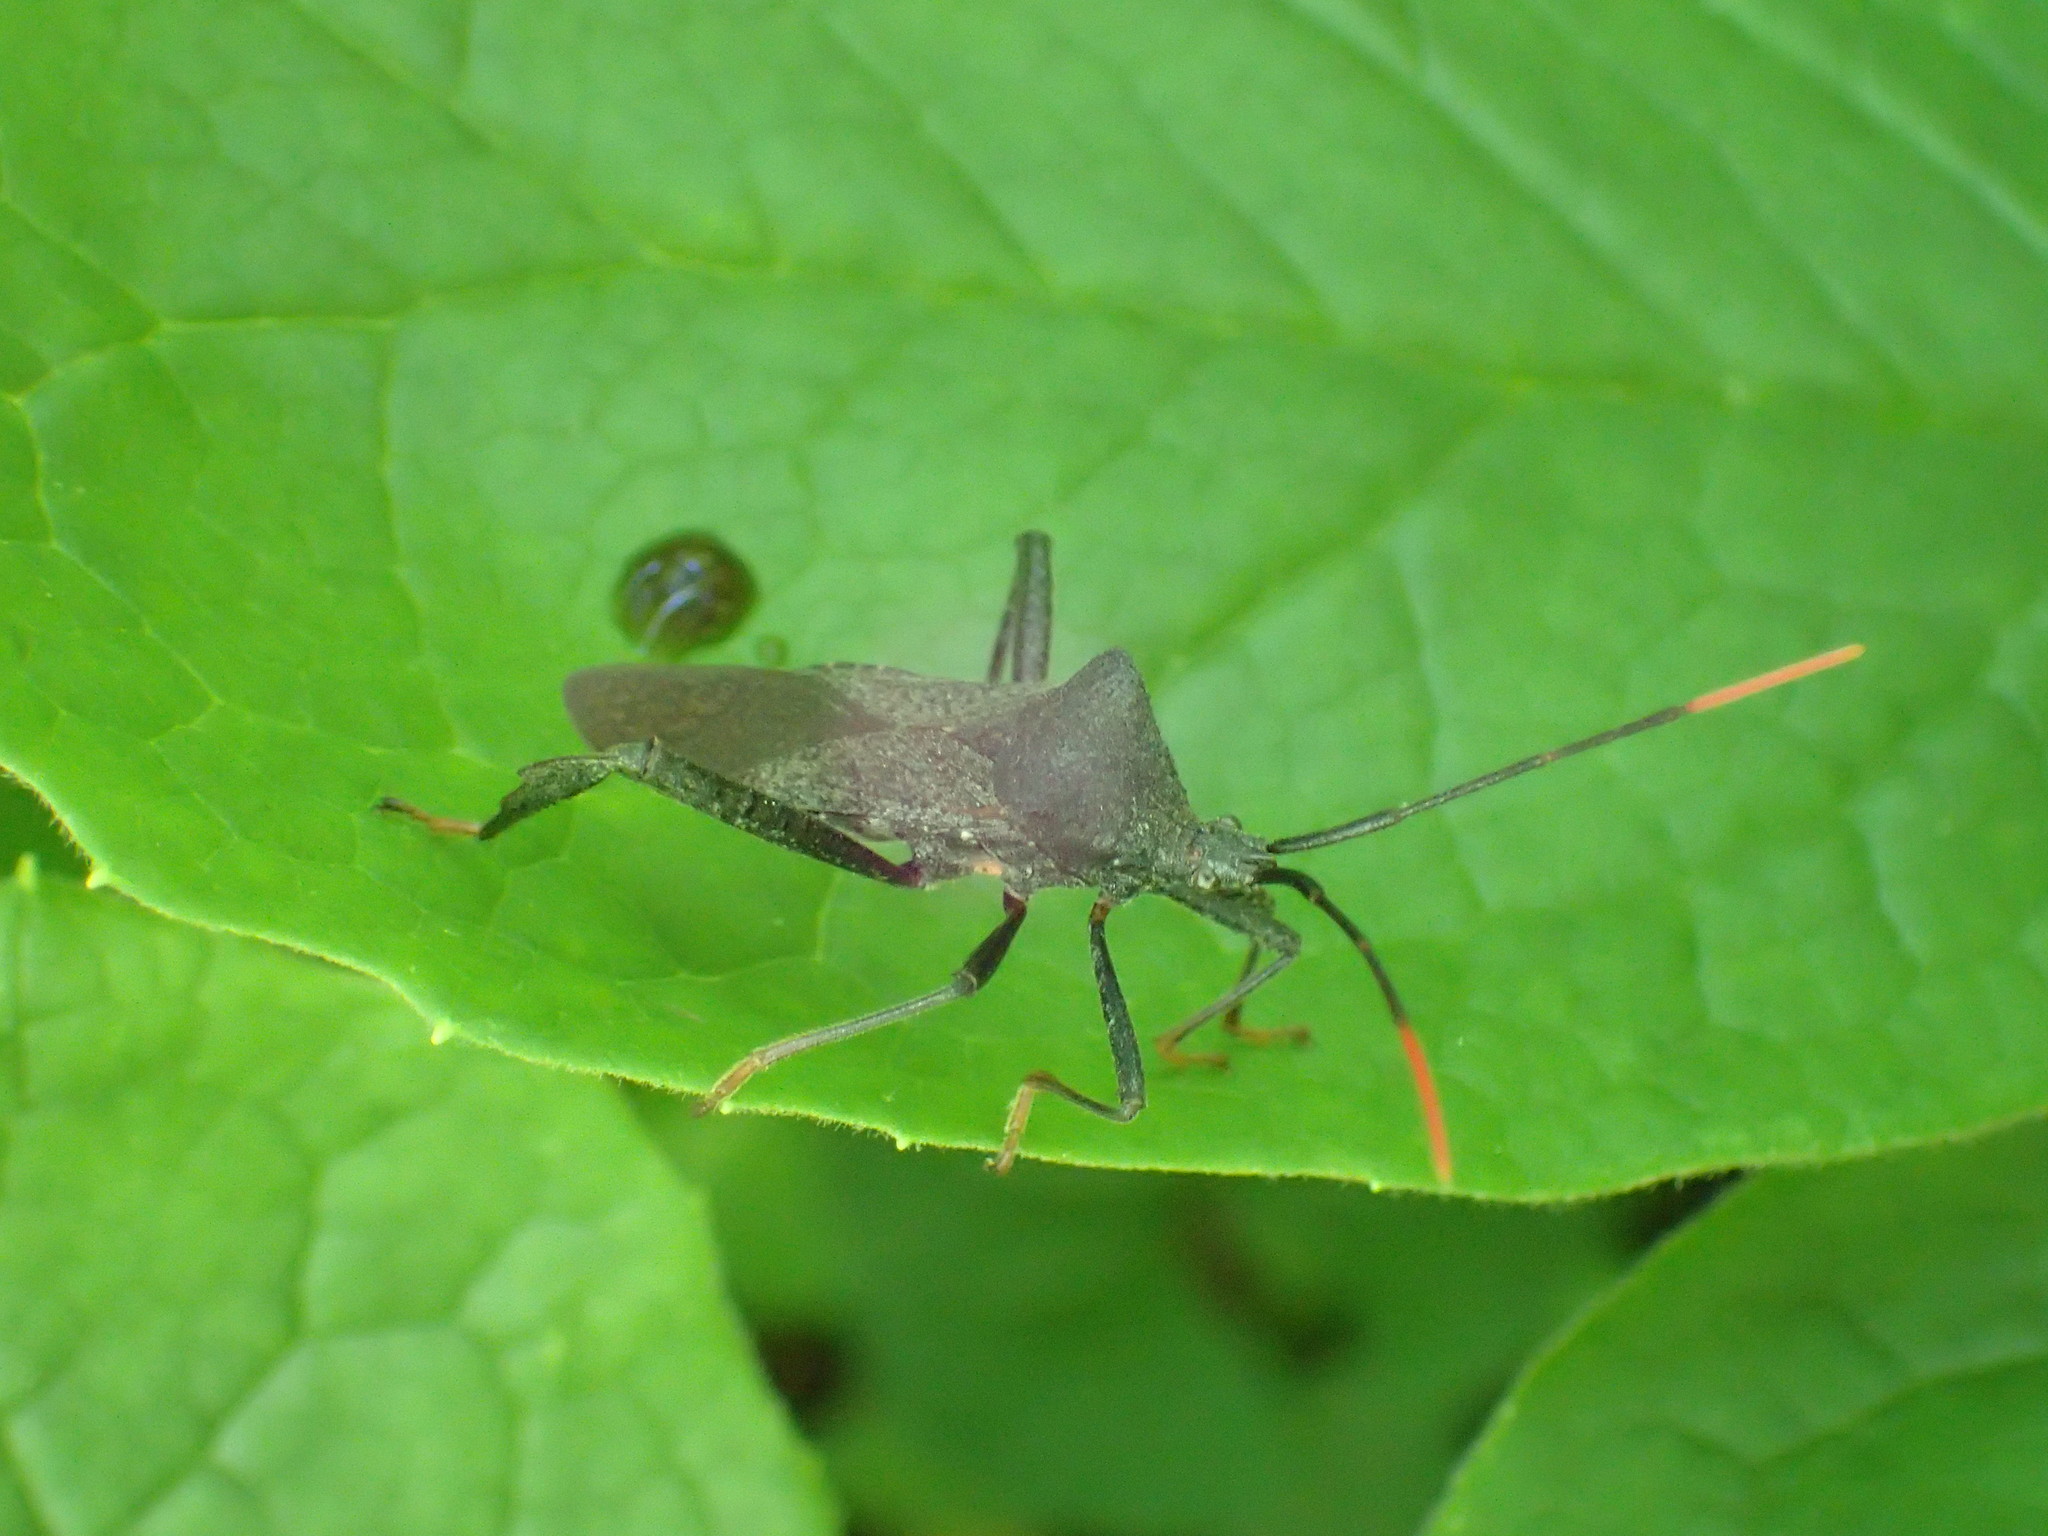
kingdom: Animalia
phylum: Arthropoda
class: Insecta
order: Hemiptera
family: Coreidae
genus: Acanthocephala
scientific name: Acanthocephala terminalis
